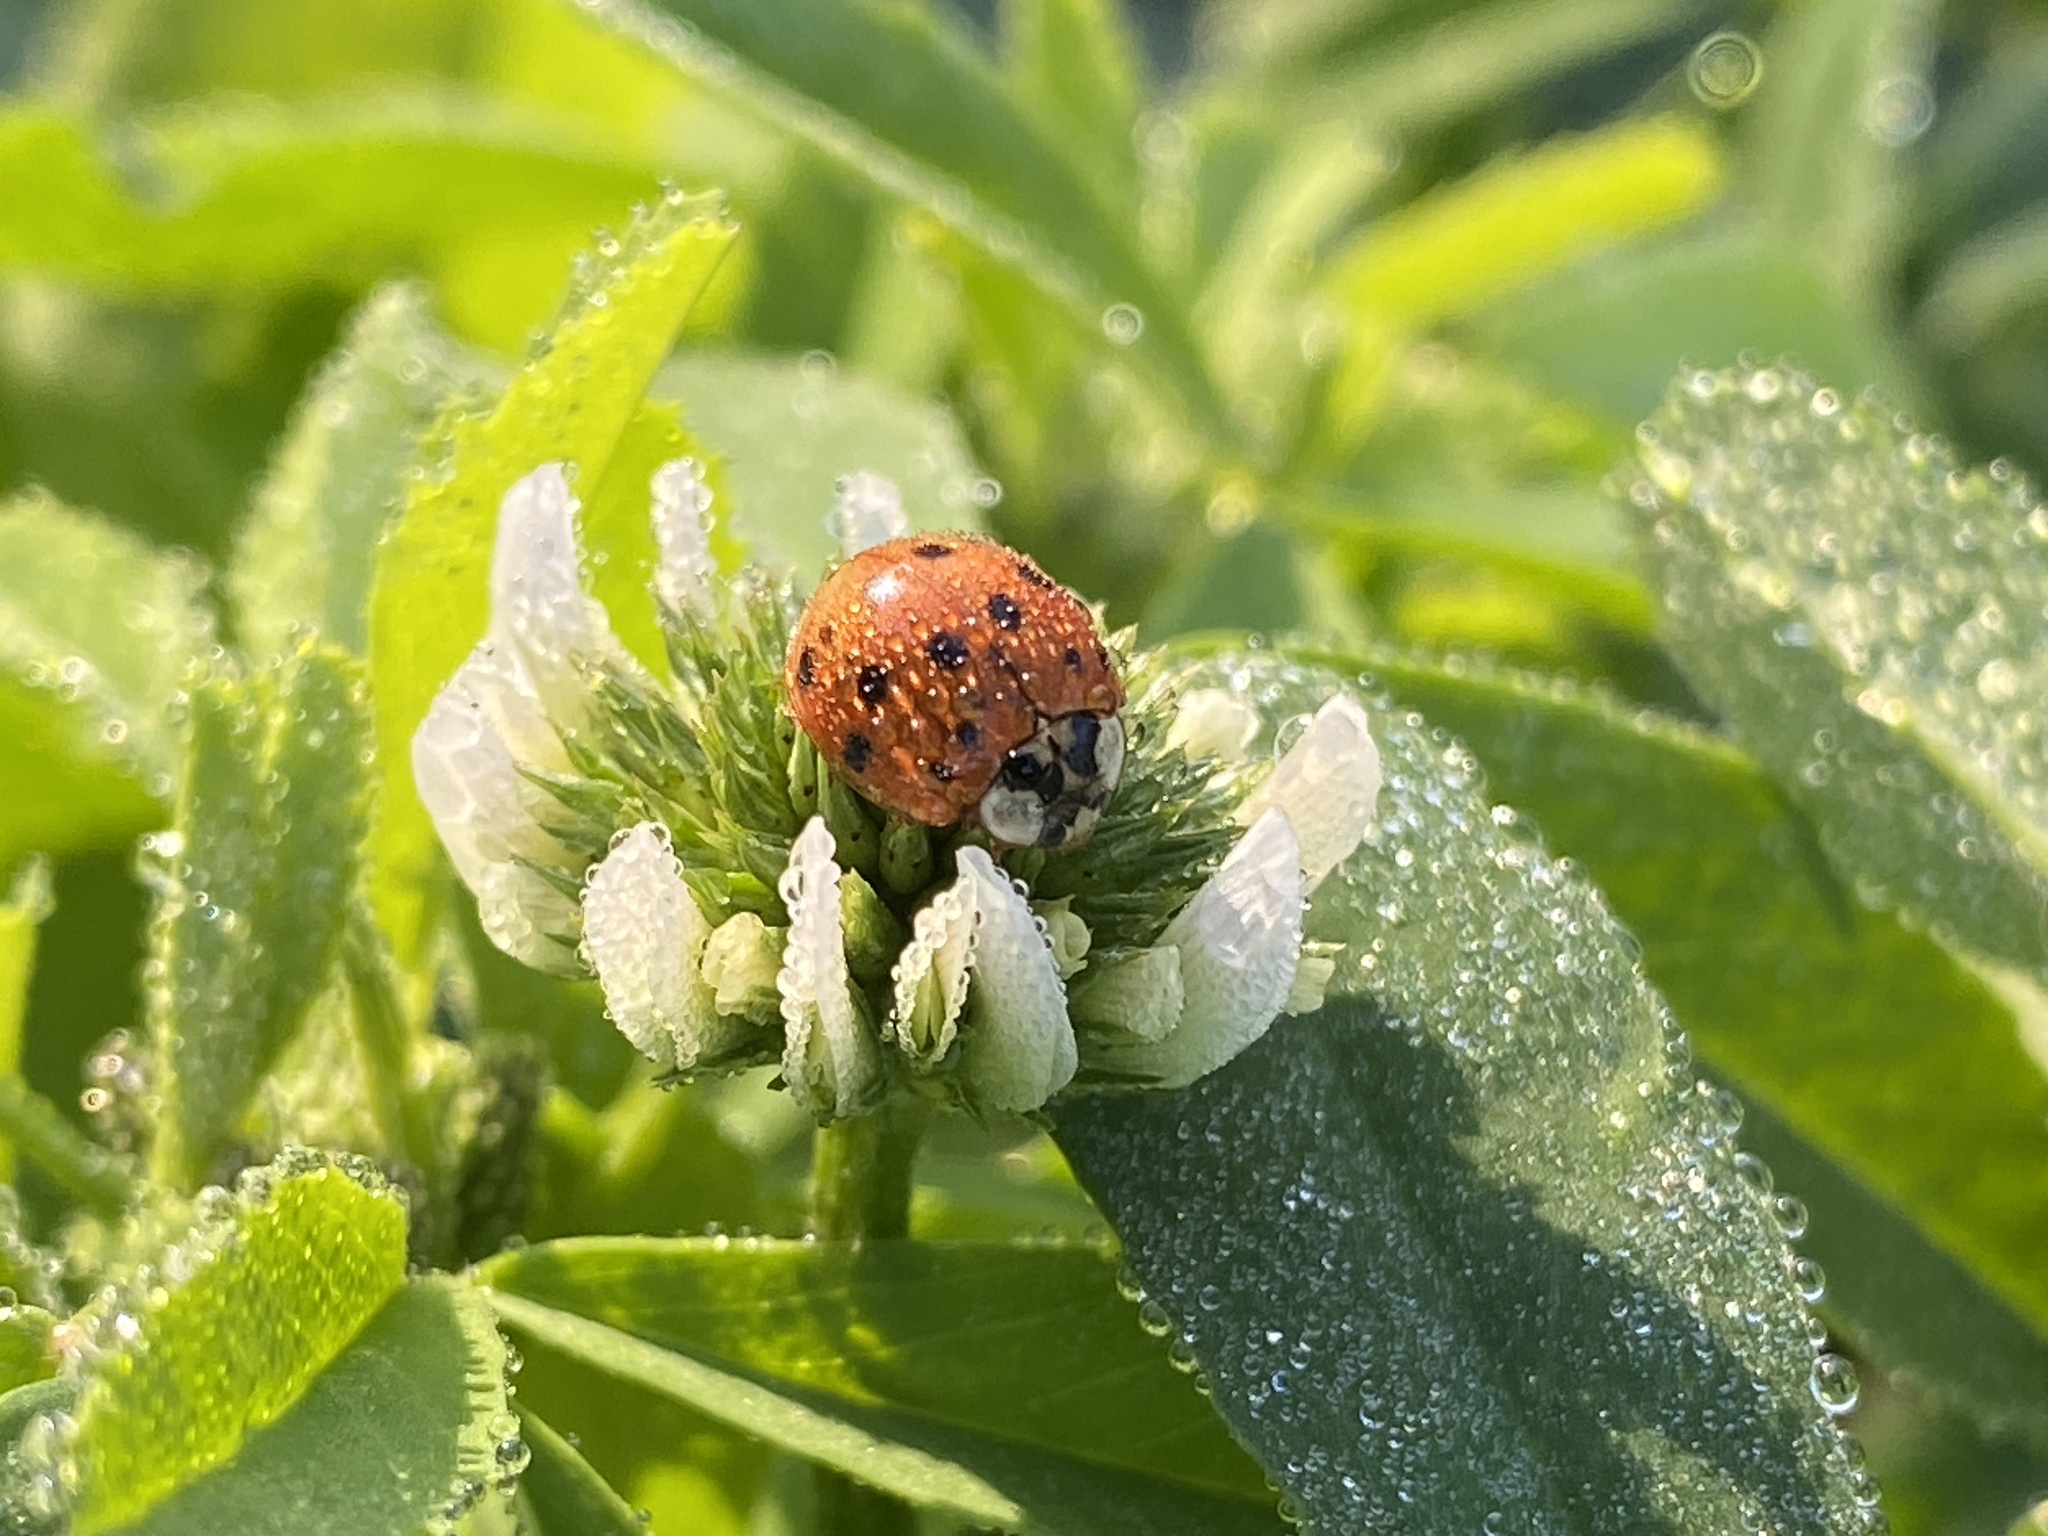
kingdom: Animalia
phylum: Arthropoda
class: Insecta
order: Coleoptera
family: Coccinellidae
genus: Harmonia
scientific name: Harmonia axyridis
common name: Harlequin ladybird
